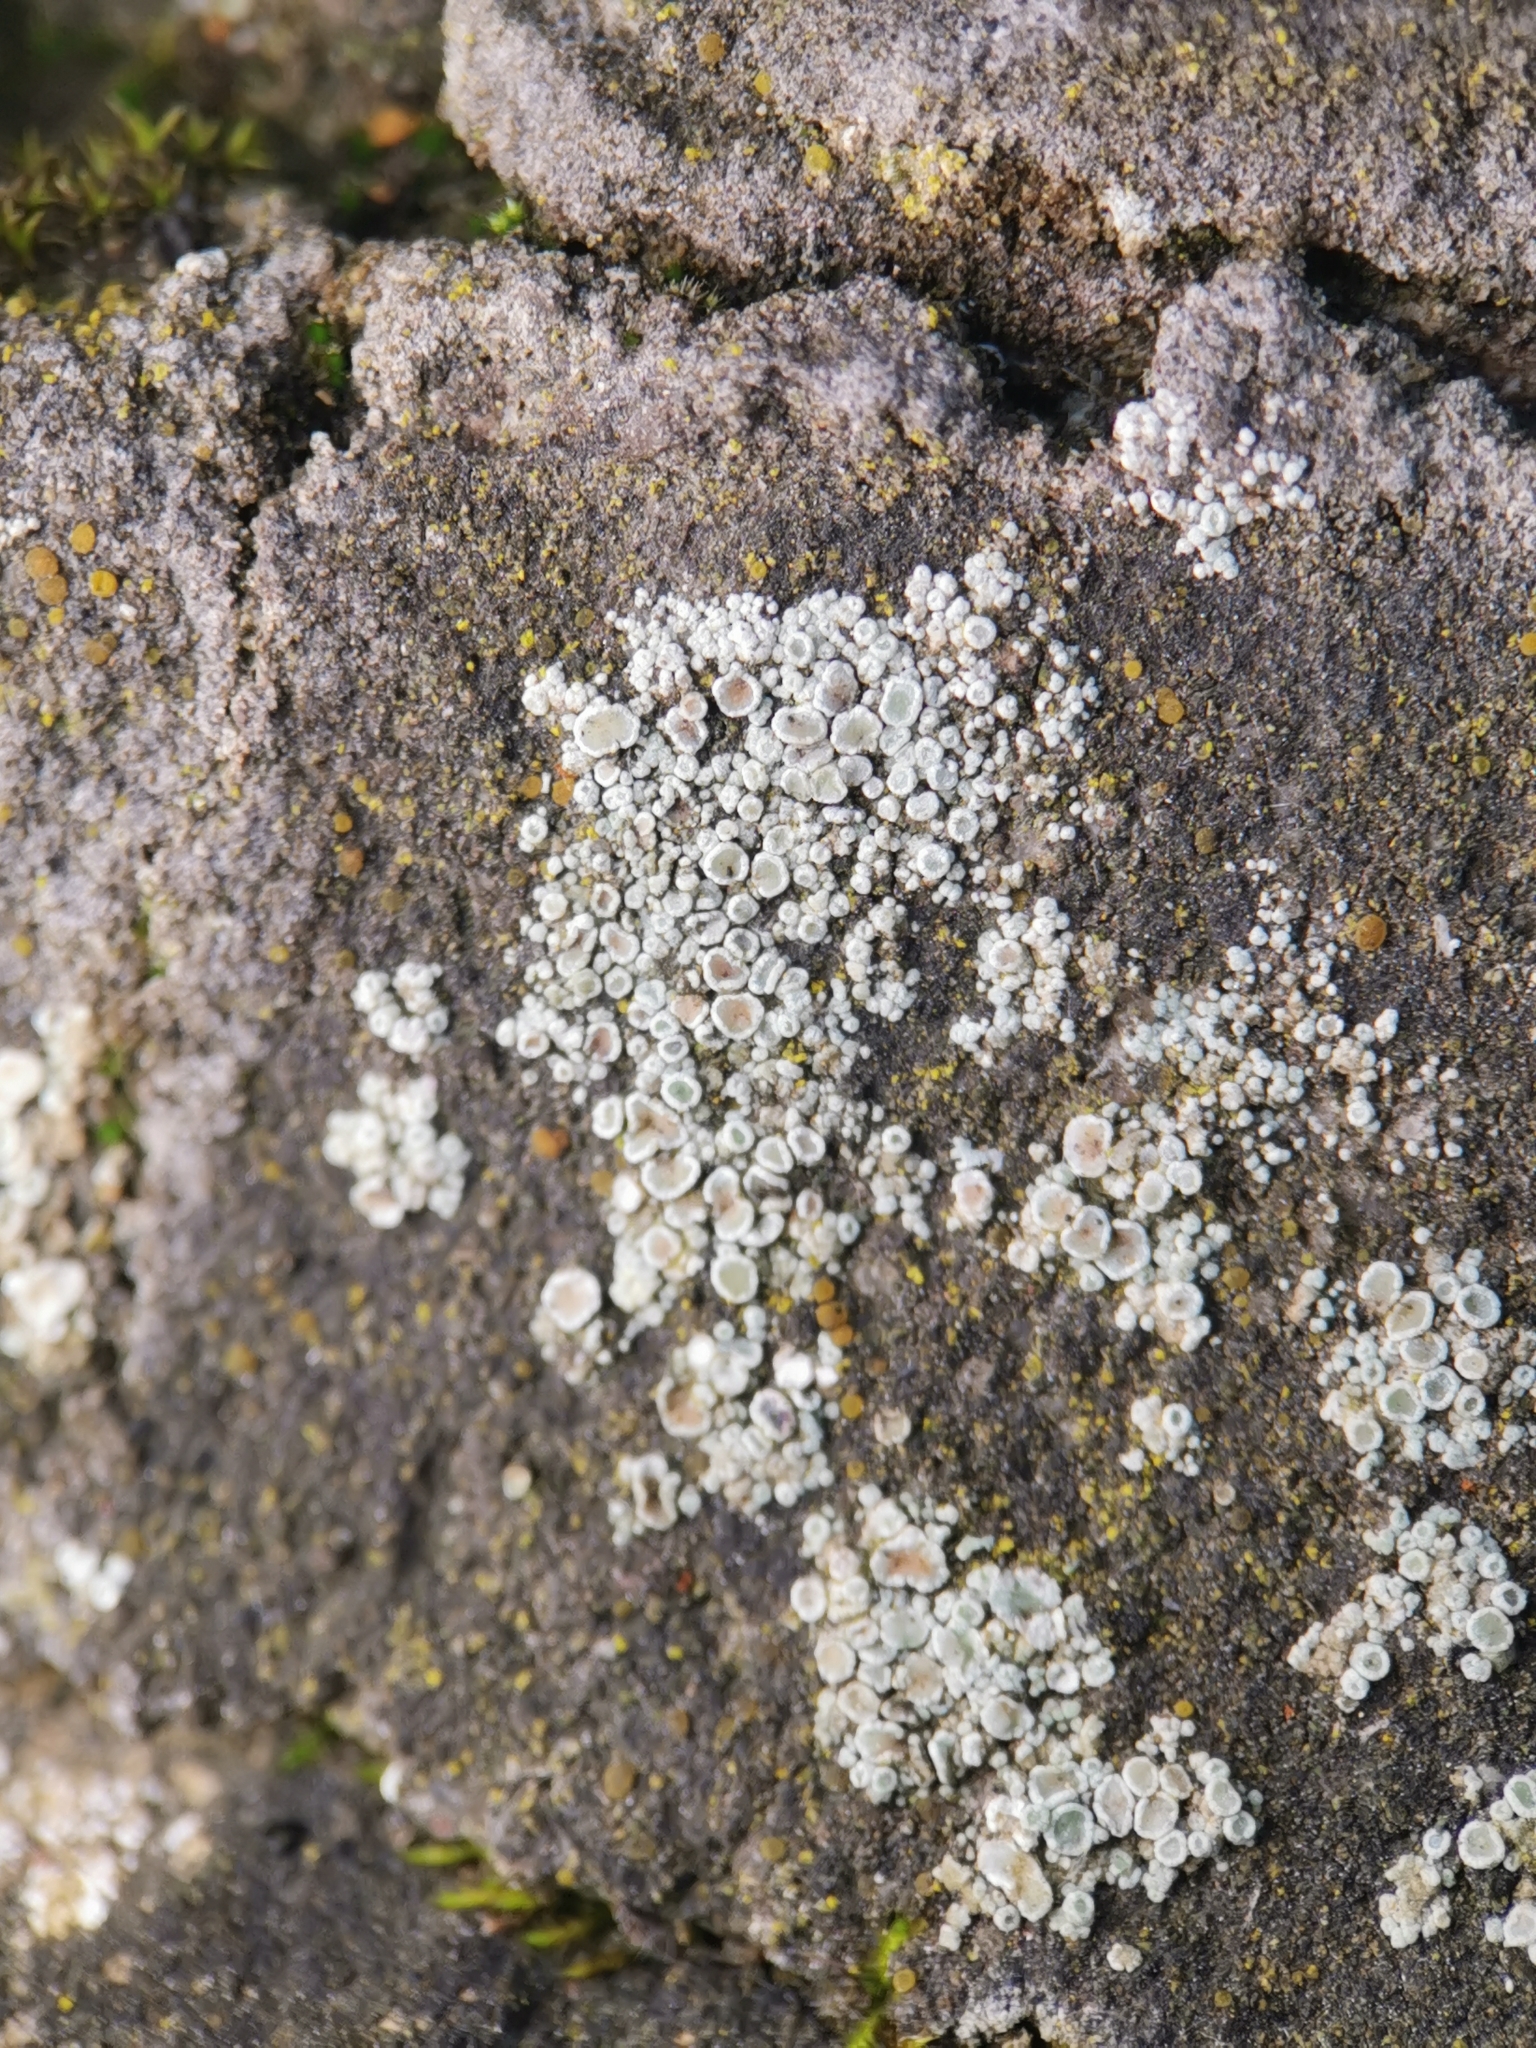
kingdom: Fungi
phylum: Ascomycota
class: Lecanoromycetes
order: Lecanorales
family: Lecanoraceae
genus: Polyozosia
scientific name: Polyozosia albescens
